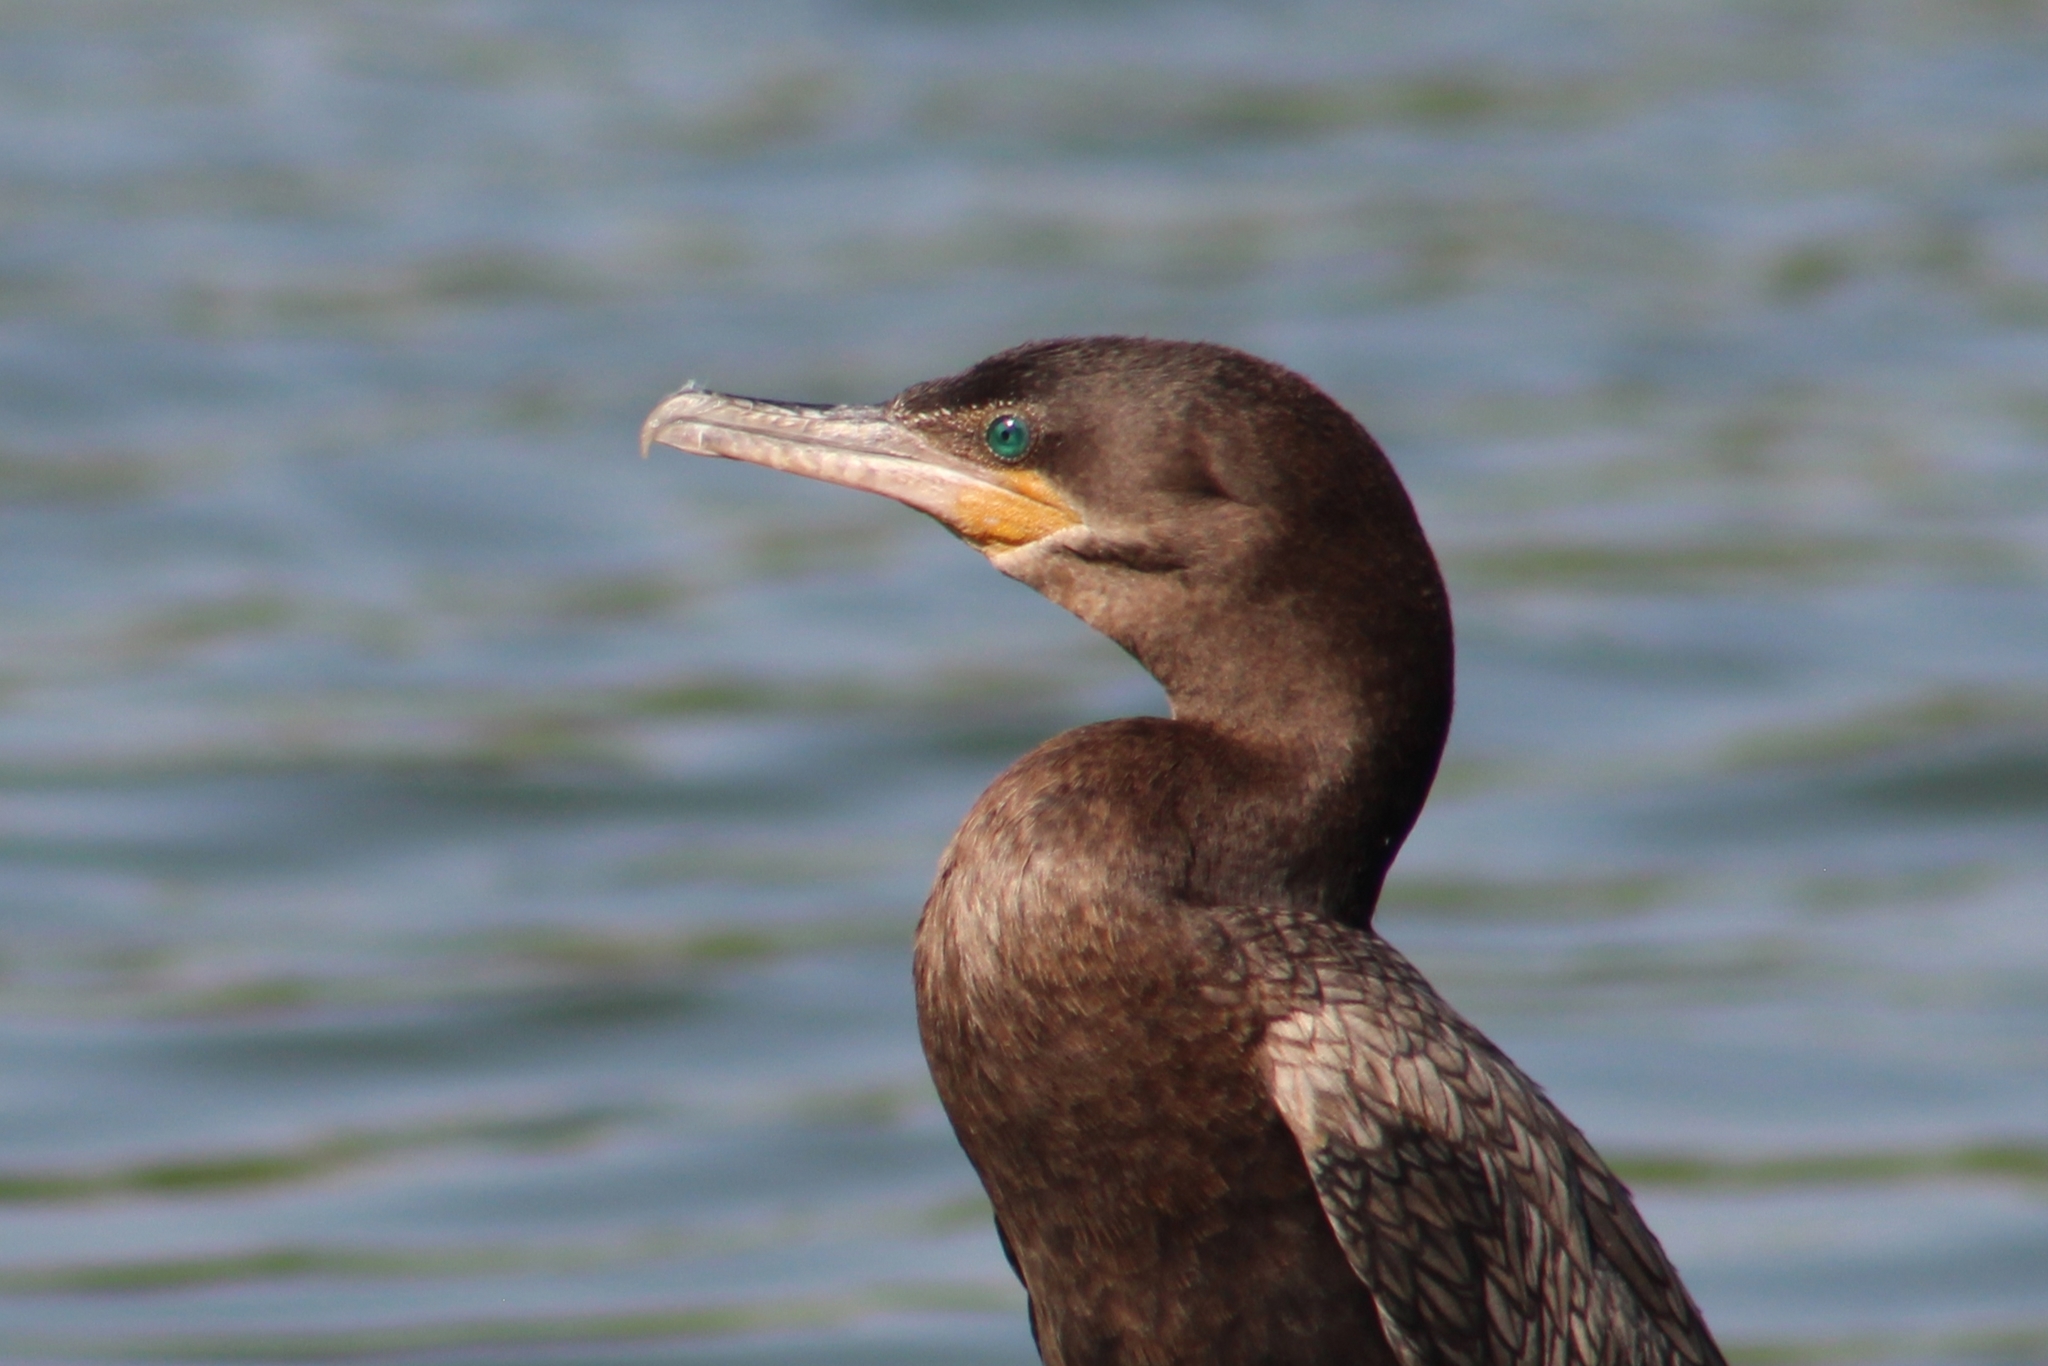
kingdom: Animalia
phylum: Chordata
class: Aves
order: Suliformes
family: Phalacrocoracidae
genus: Phalacrocorax
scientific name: Phalacrocorax brasilianus
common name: Neotropic cormorant
